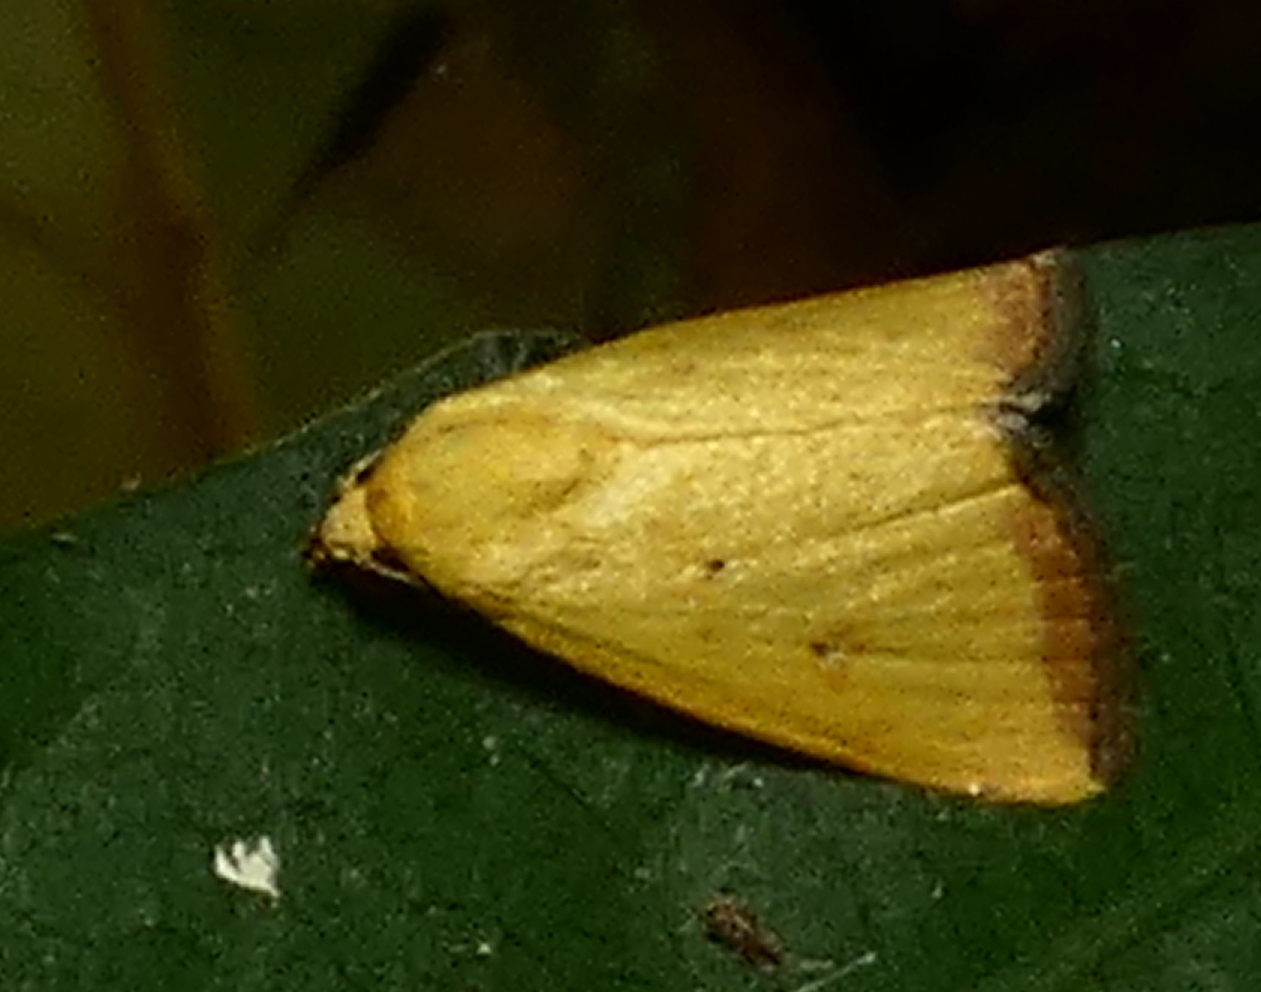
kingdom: Animalia
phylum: Arthropoda
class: Insecta
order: Lepidoptera
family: Noctuidae
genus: Marimatha
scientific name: Marimatha botyoides
